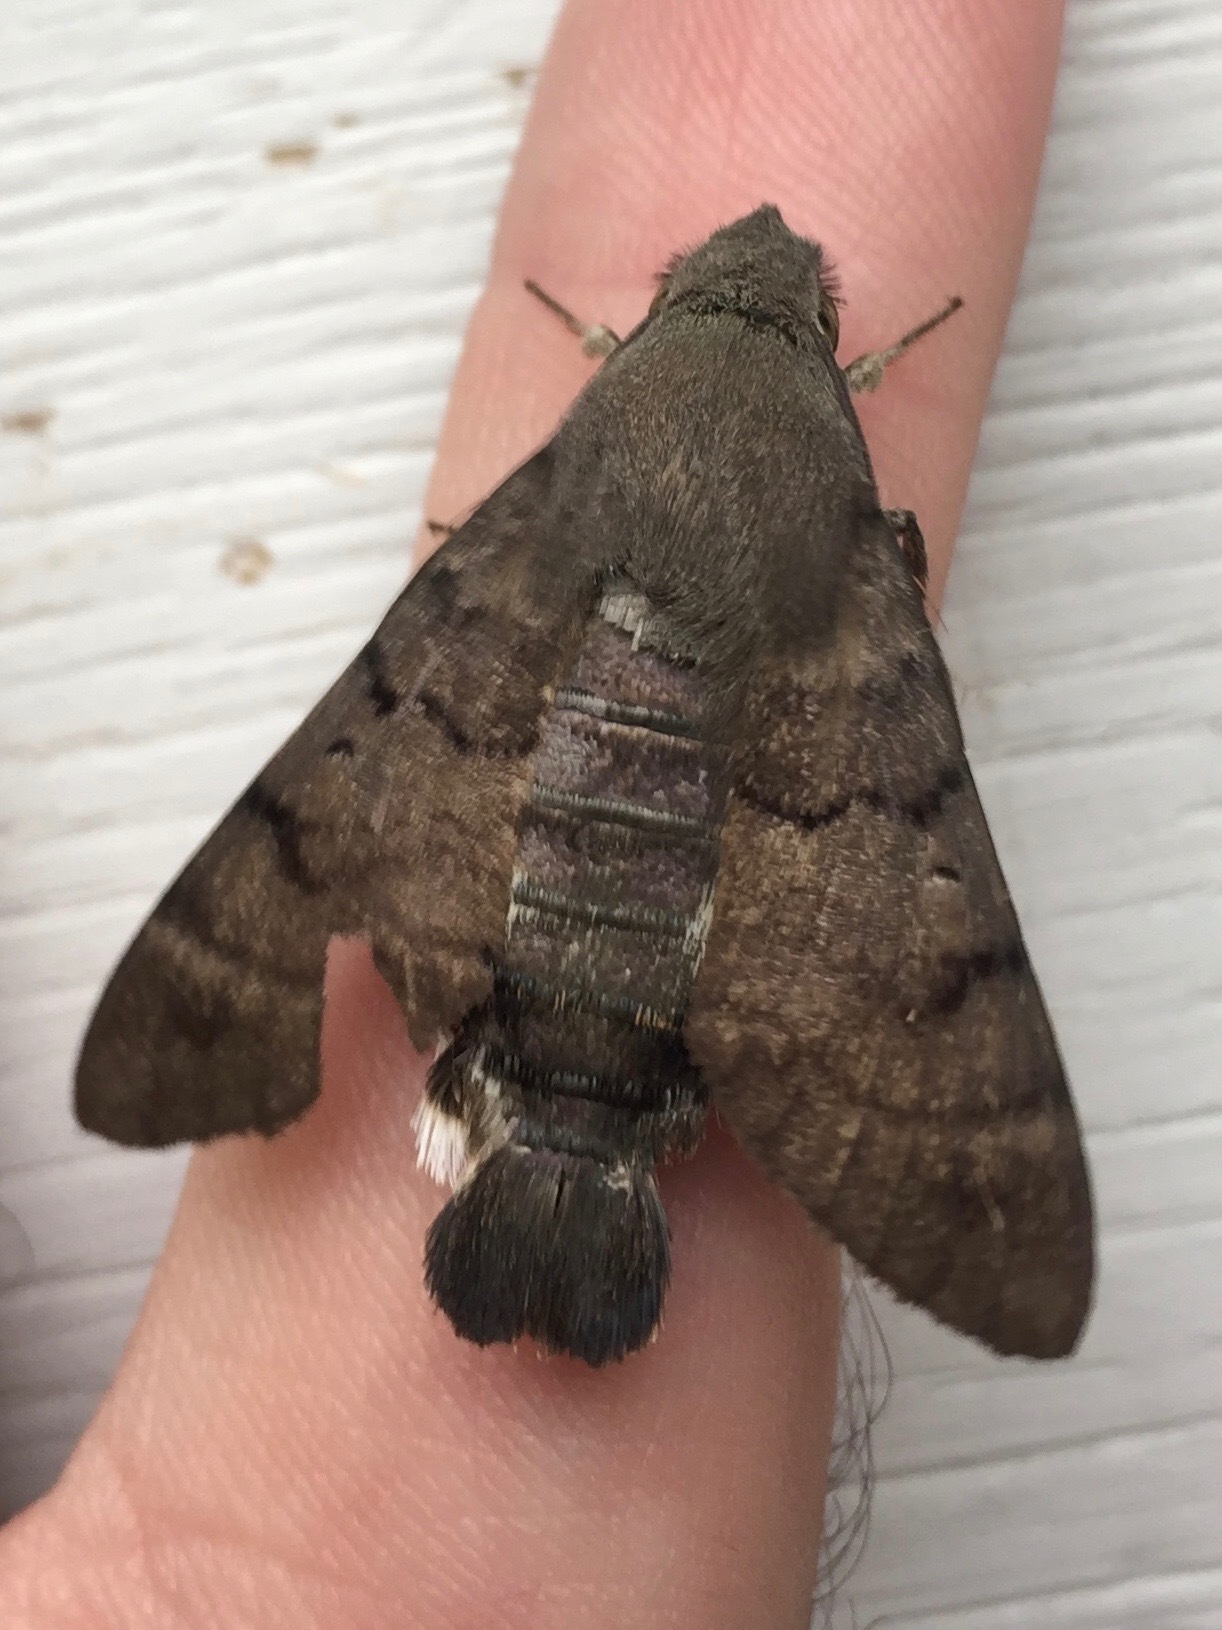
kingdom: Animalia
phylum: Arthropoda
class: Insecta
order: Lepidoptera
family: Sphingidae
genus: Macroglossum
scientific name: Macroglossum stellatarum
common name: Humming-bird hawk-moth
